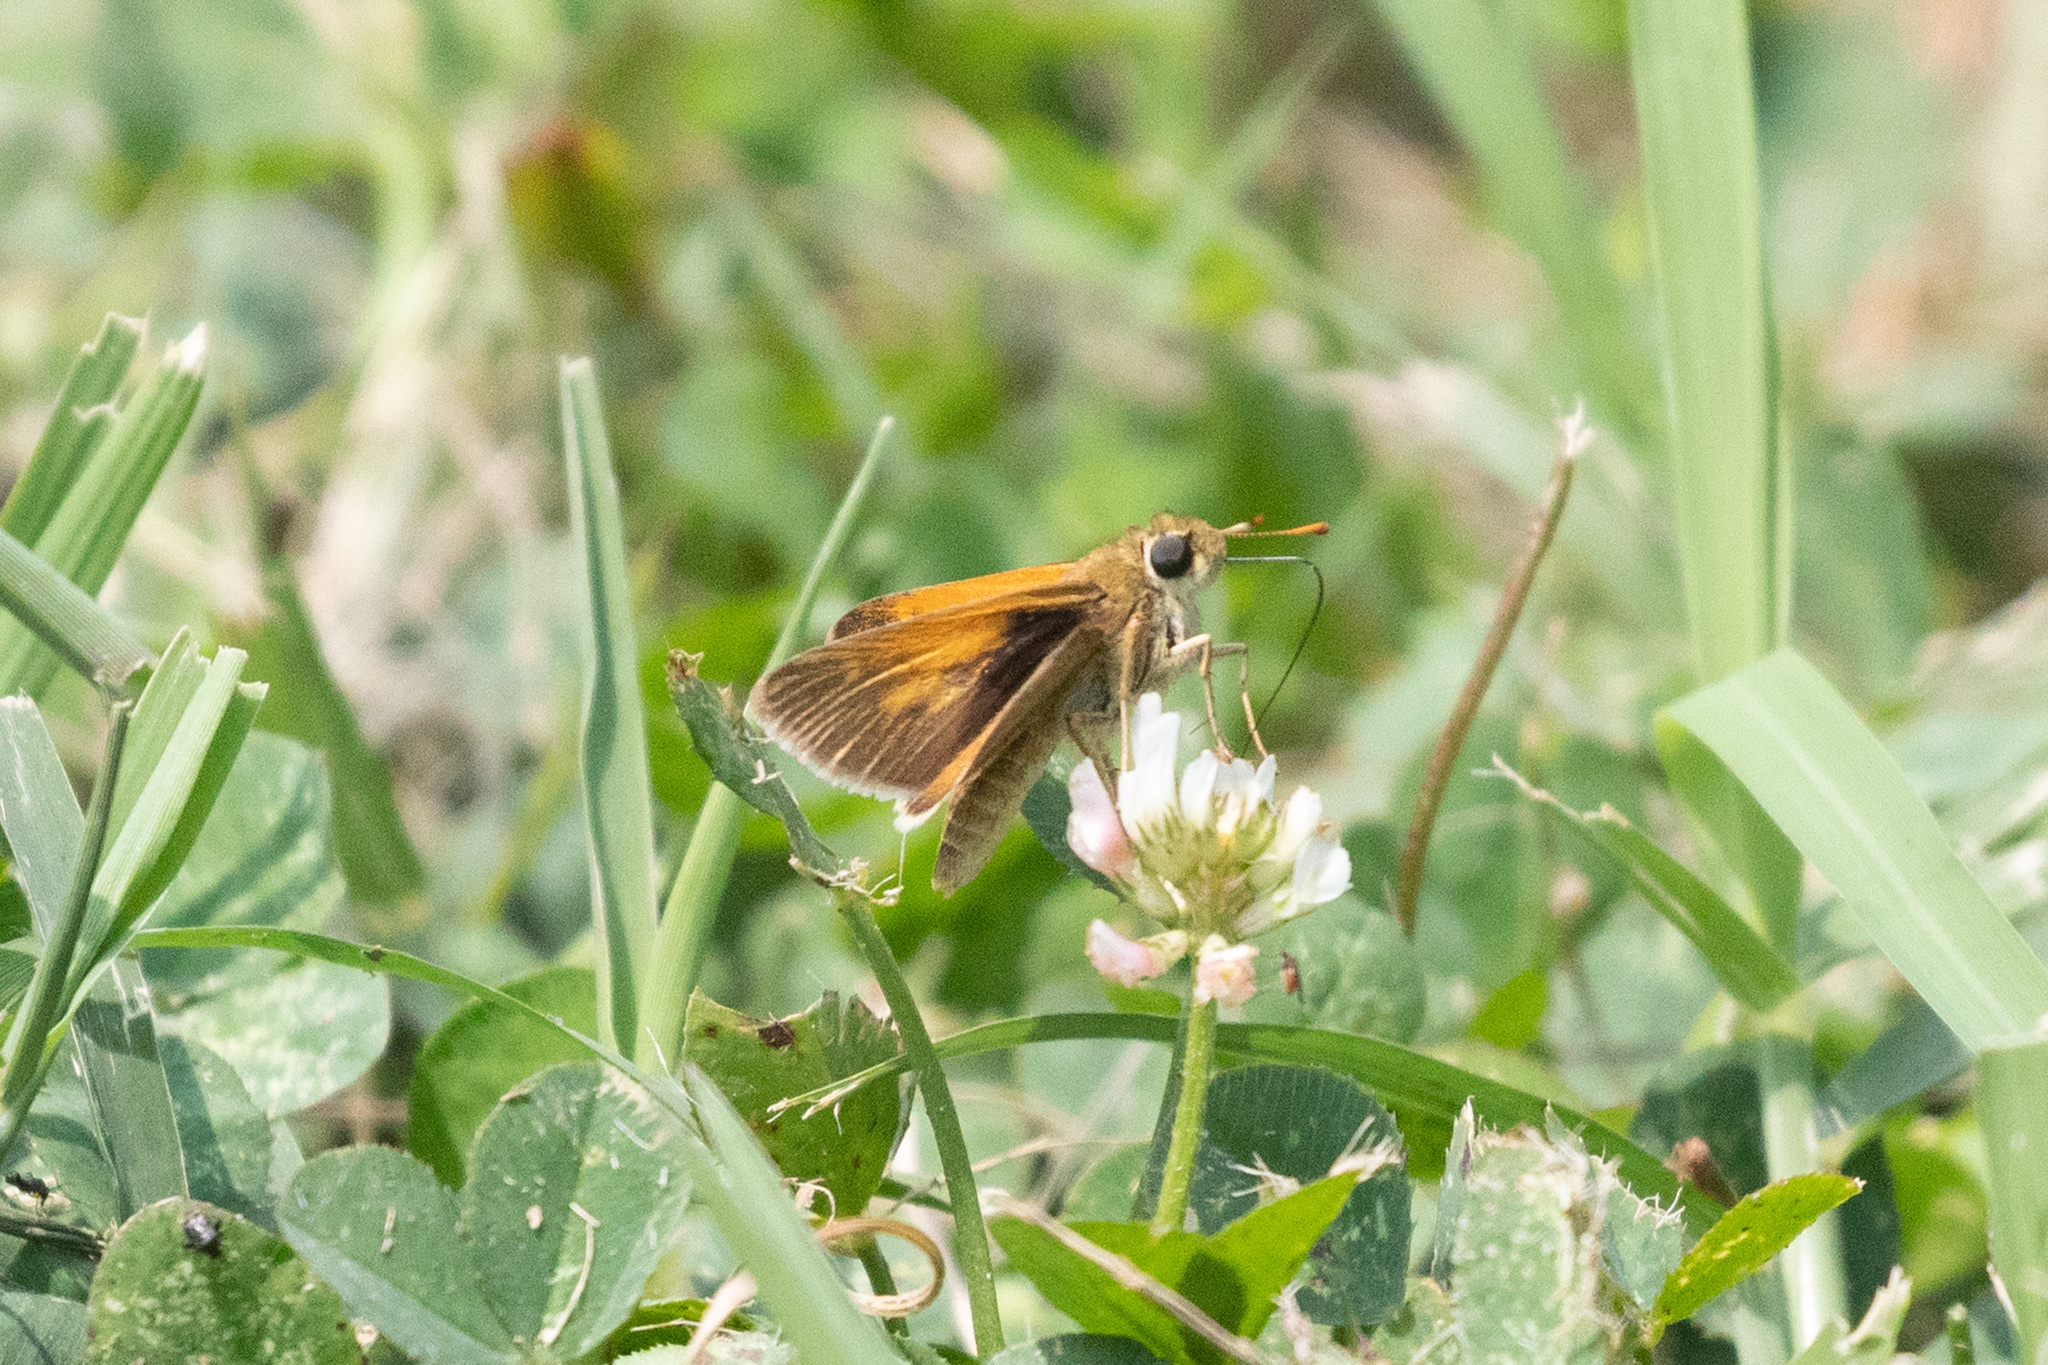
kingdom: Animalia
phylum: Arthropoda
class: Insecta
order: Lepidoptera
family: Hesperiidae
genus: Polites
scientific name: Polites themistocles
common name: Tawny-edged skipper
